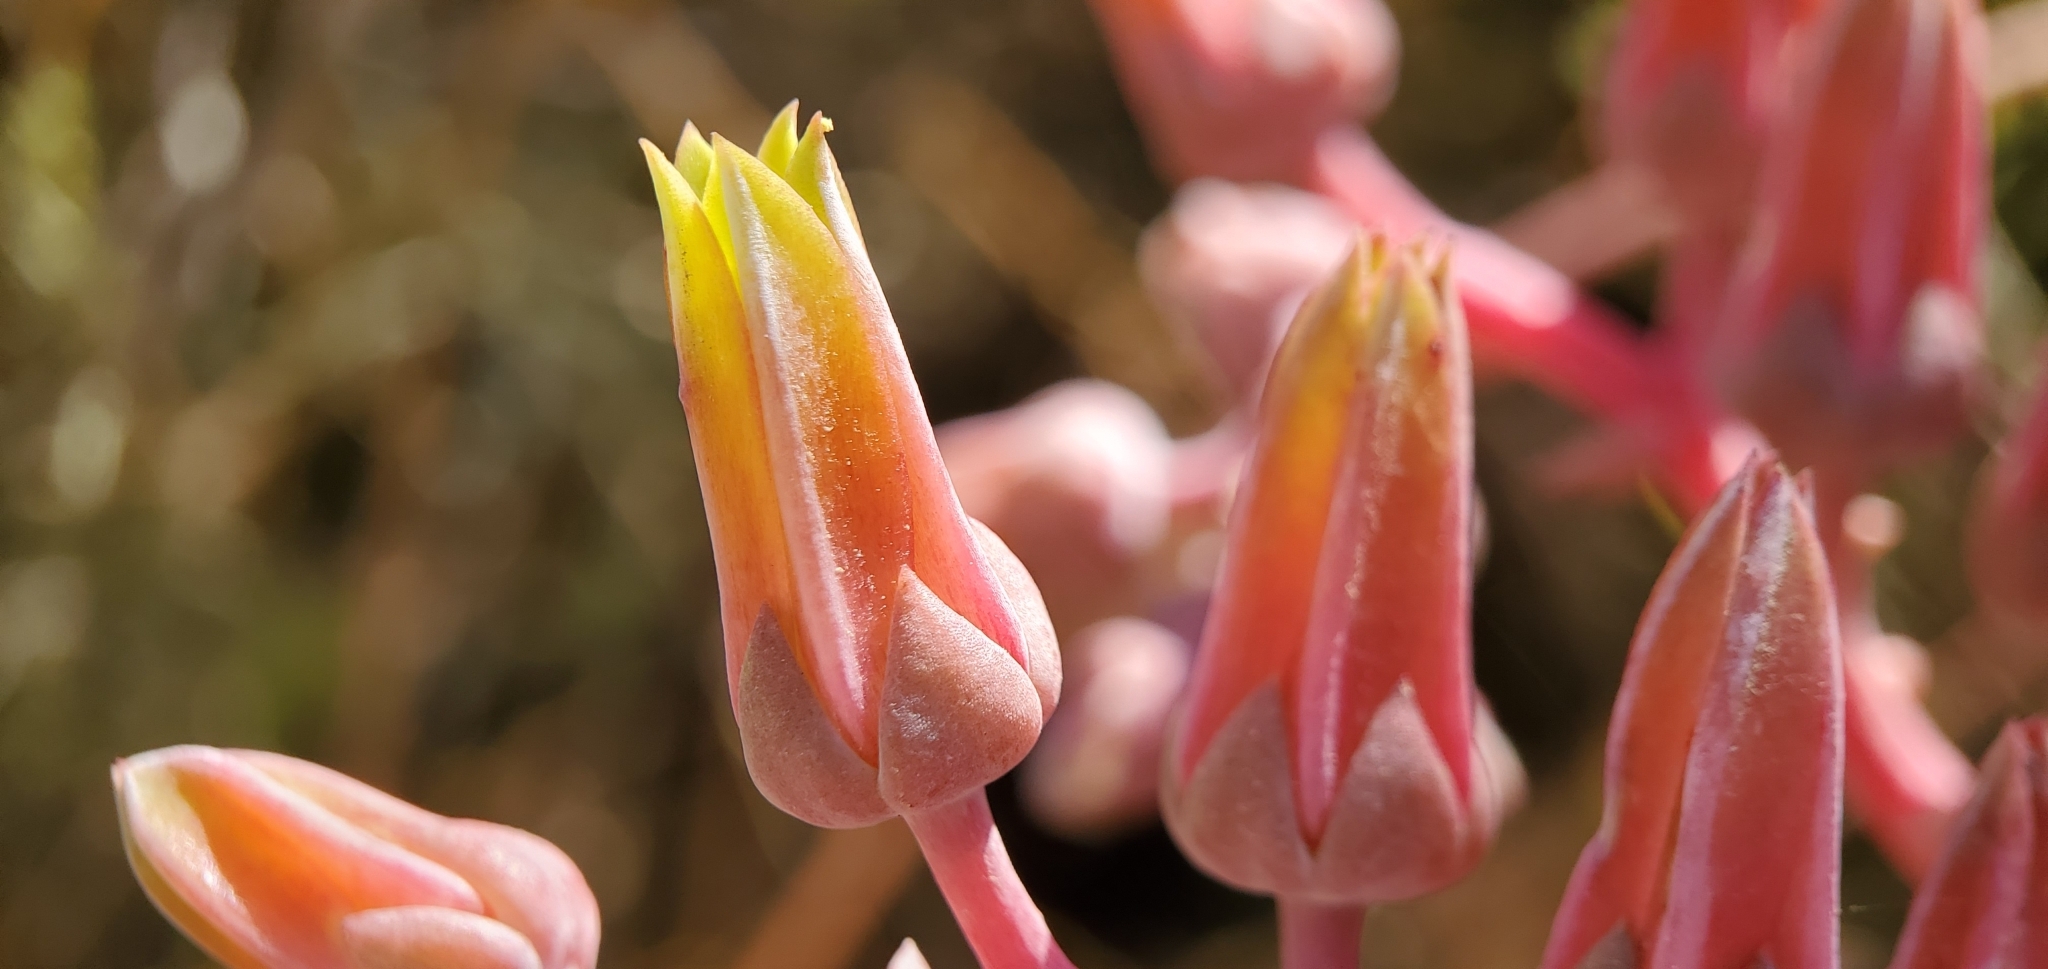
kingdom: Plantae
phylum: Tracheophyta
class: Magnoliopsida
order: Saxifragales
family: Crassulaceae
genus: Dudleya
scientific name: Dudleya lanceolata
